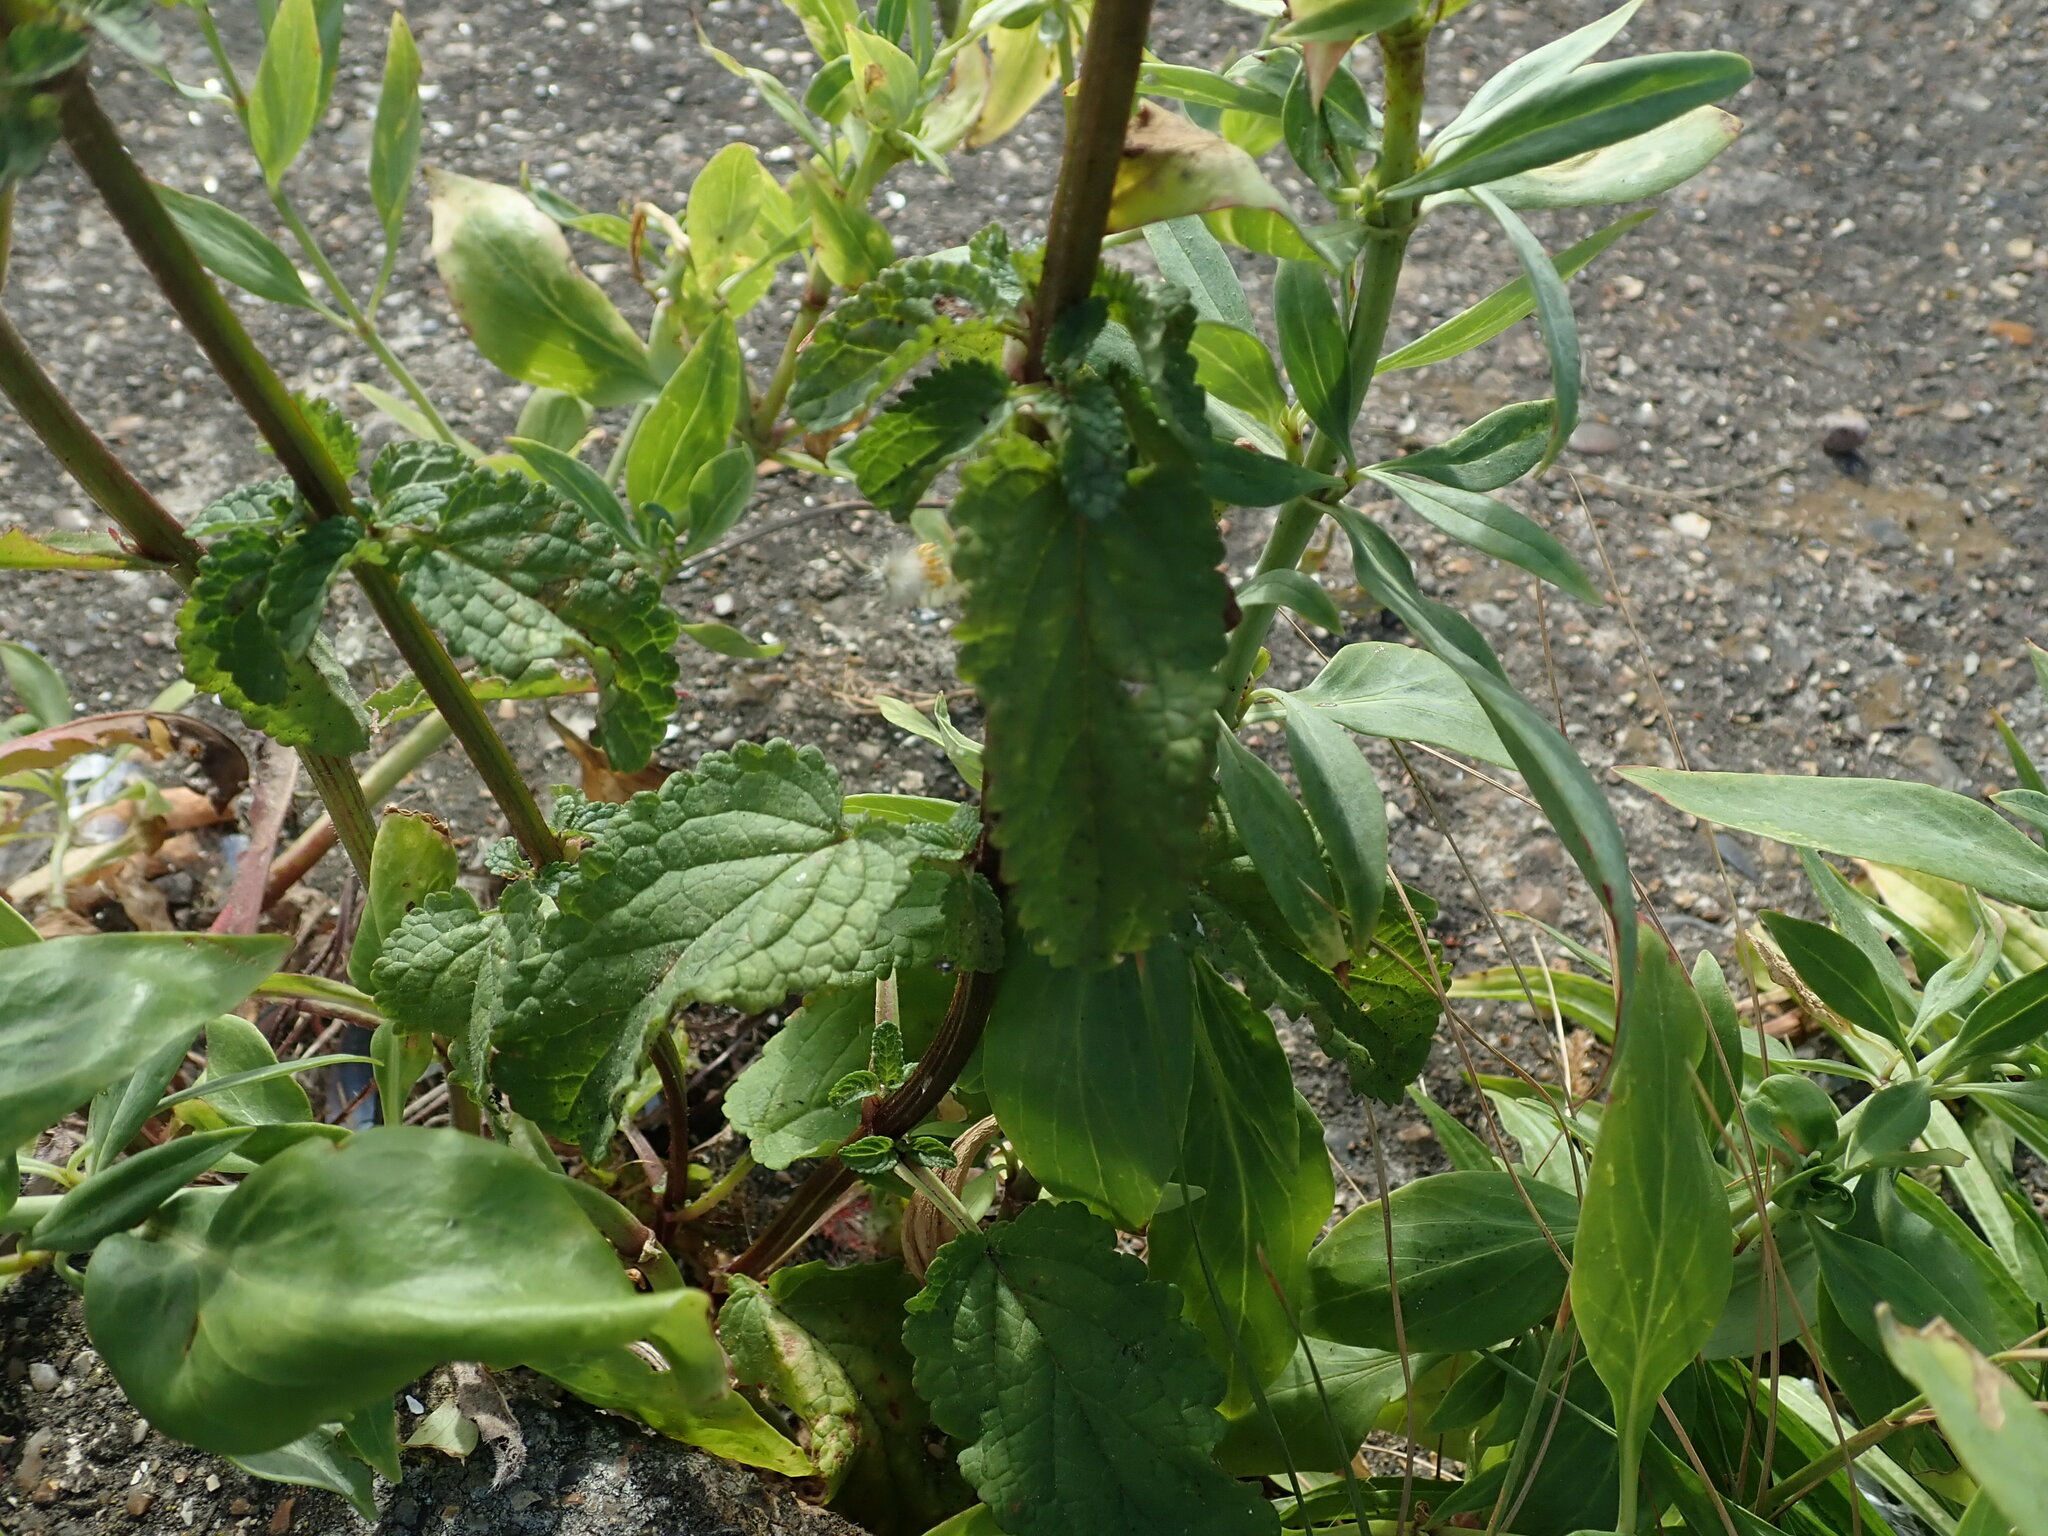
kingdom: Plantae
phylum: Tracheophyta
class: Magnoliopsida
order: Lamiales
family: Scrophulariaceae
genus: Scrophularia
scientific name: Scrophularia auriculata
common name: Water betony
